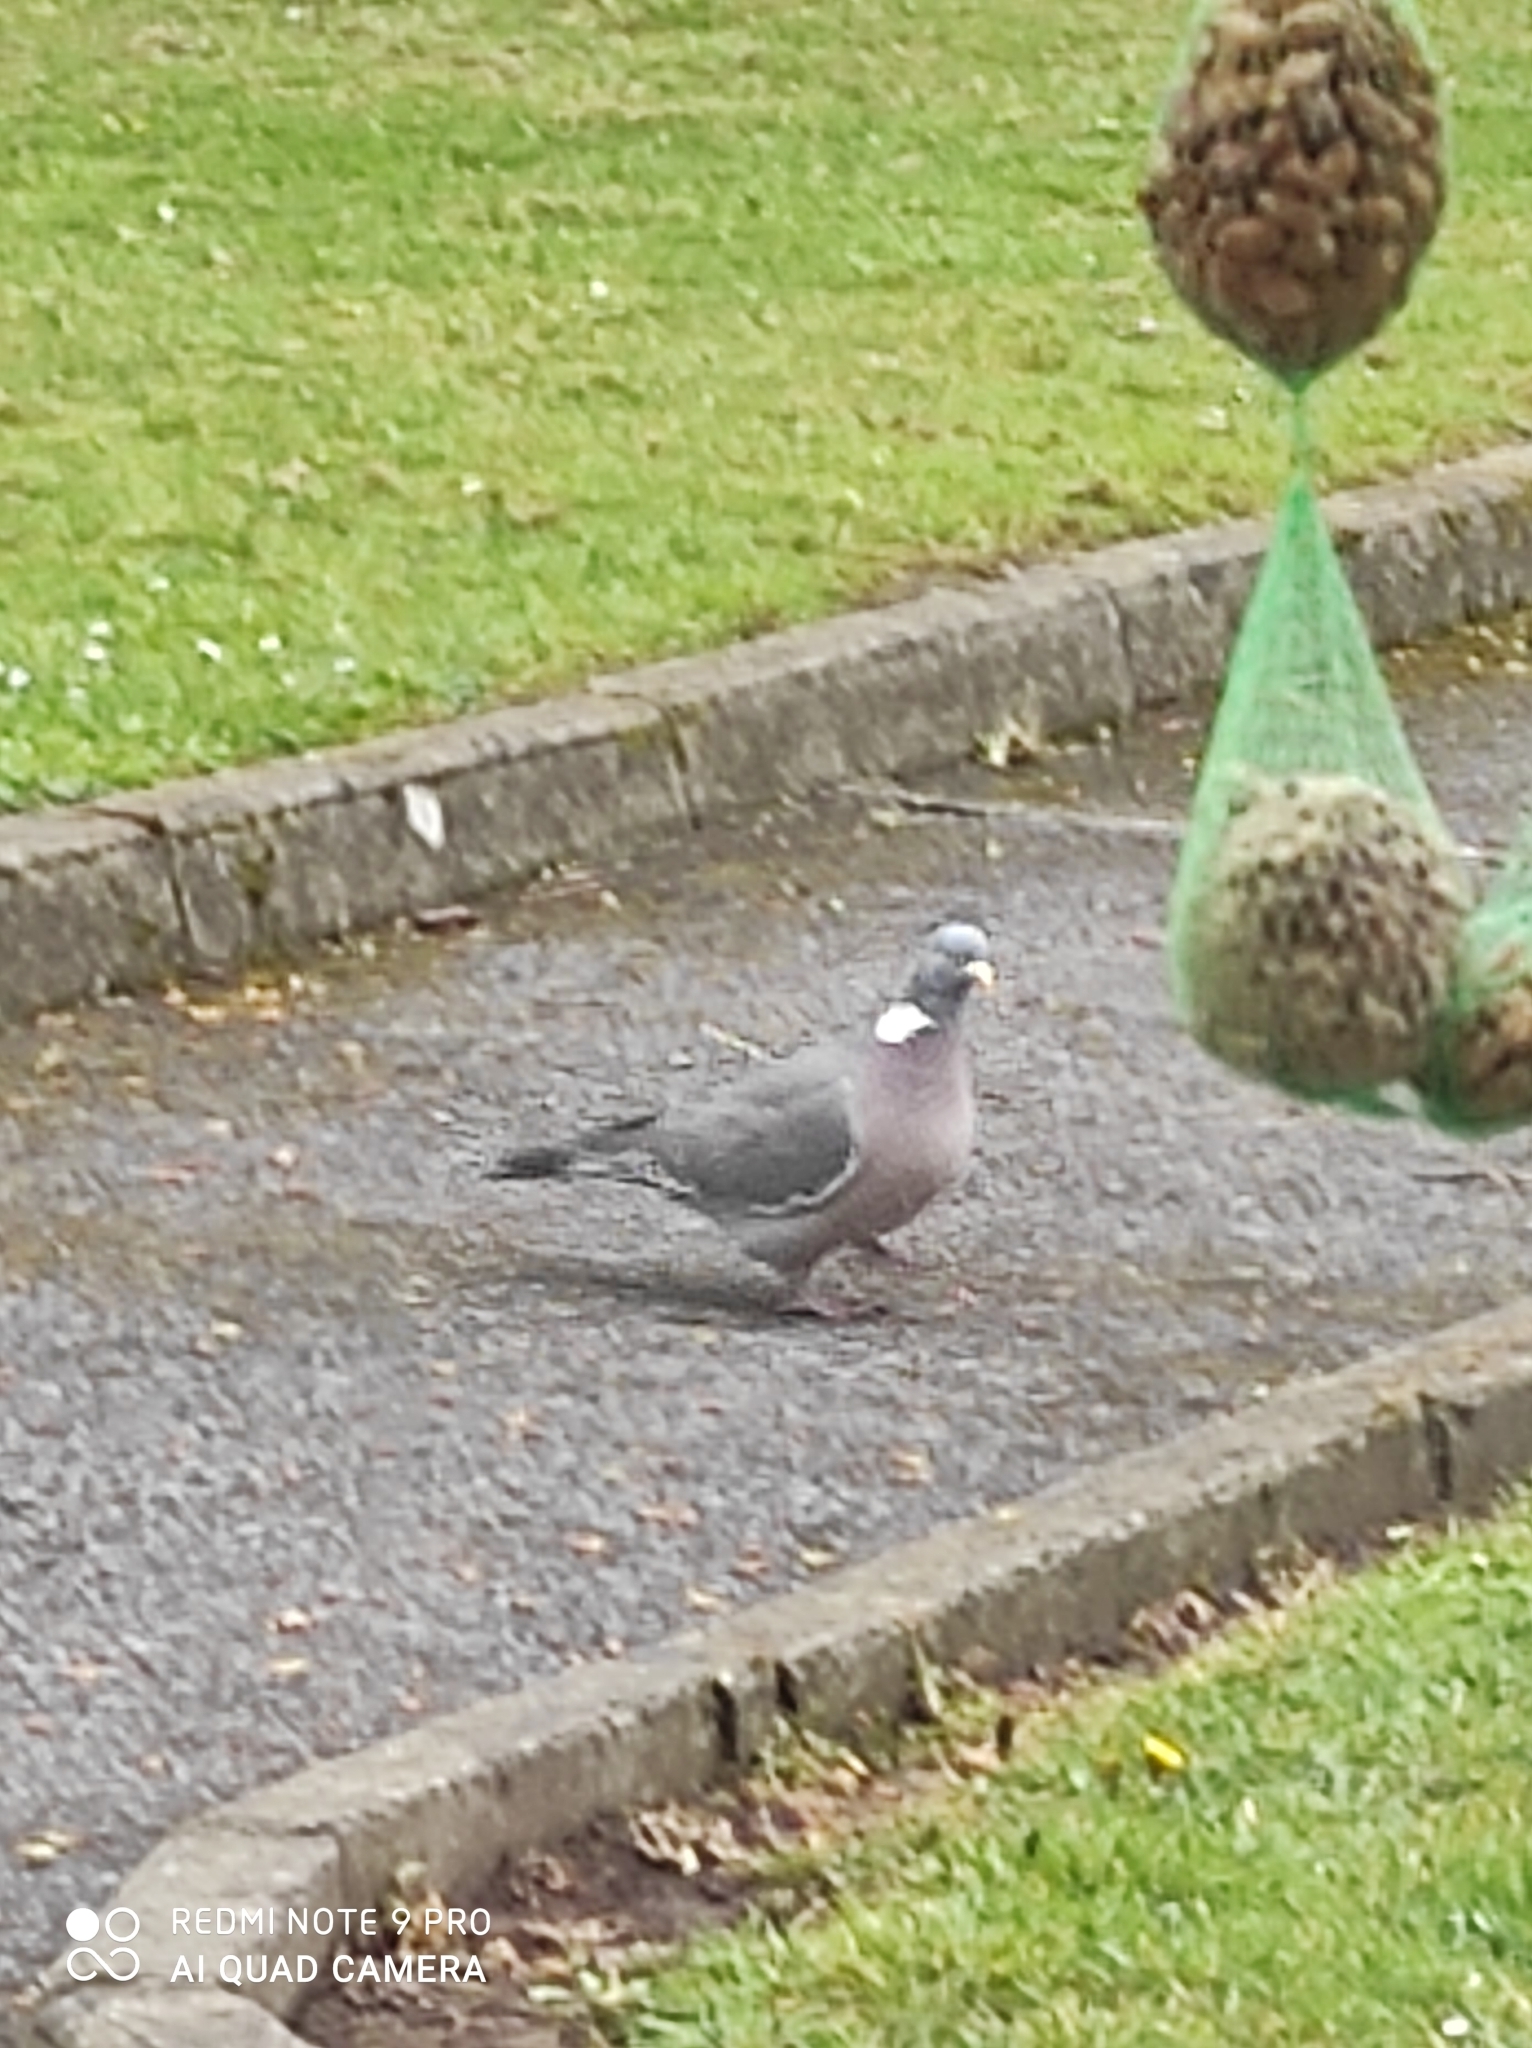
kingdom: Animalia
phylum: Chordata
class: Aves
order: Columbiformes
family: Columbidae
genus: Columba
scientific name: Columba palumbus
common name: Common wood pigeon
